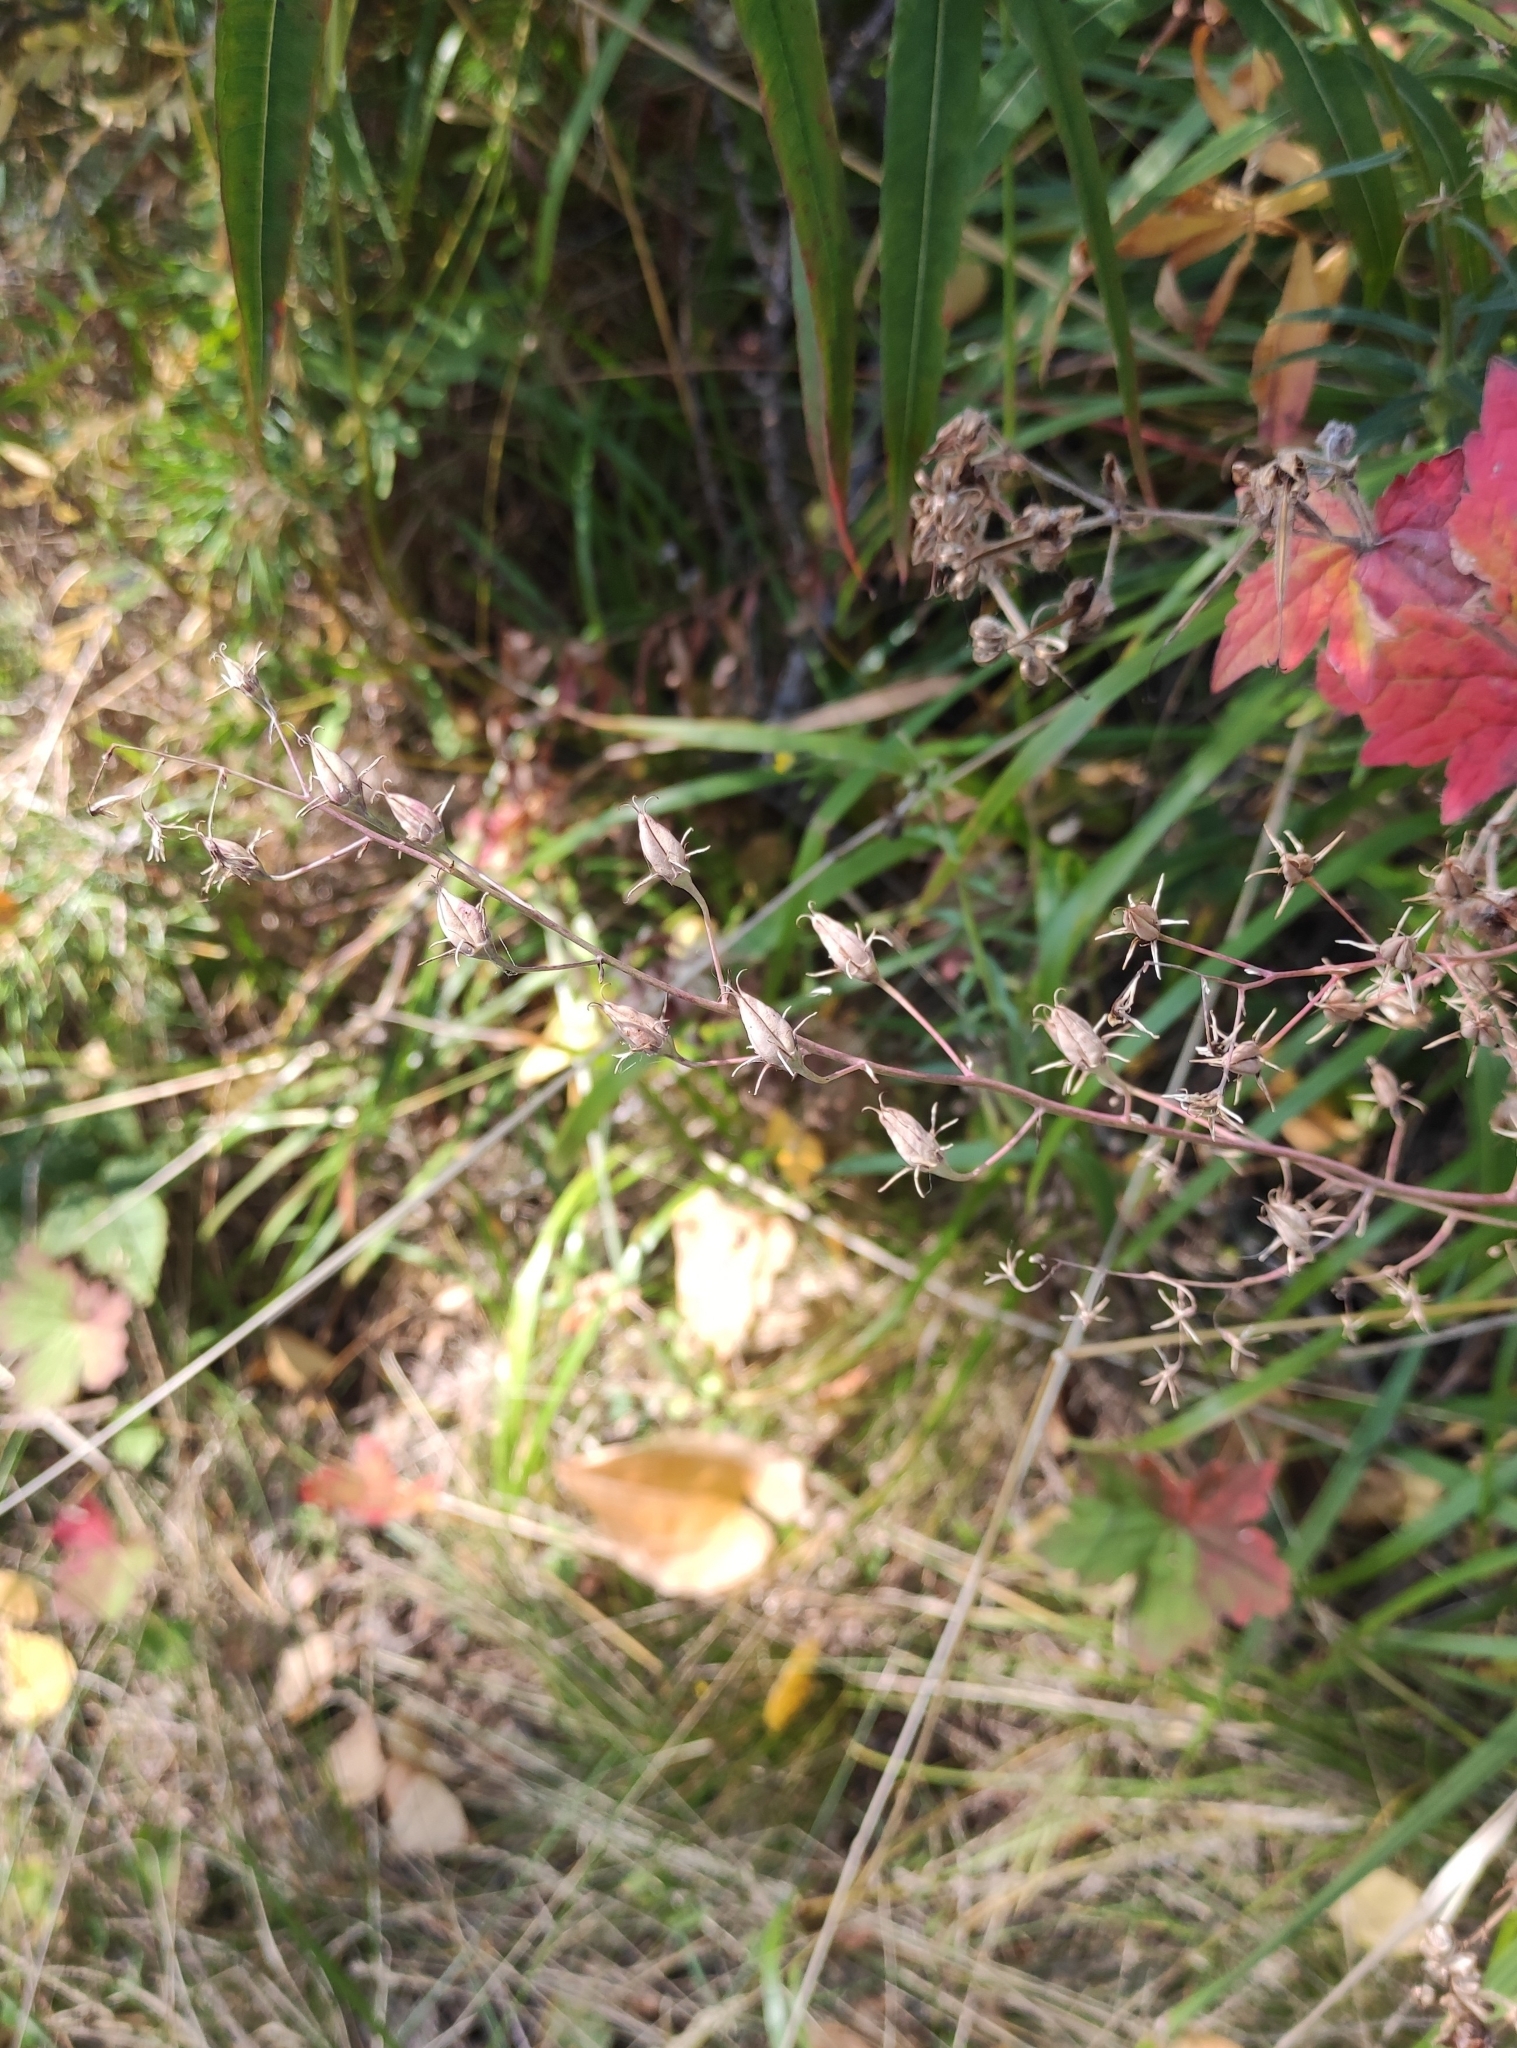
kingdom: Plantae
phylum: Tracheophyta
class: Liliopsida
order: Liliales
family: Melanthiaceae
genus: Anticlea
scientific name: Anticlea sibirica
